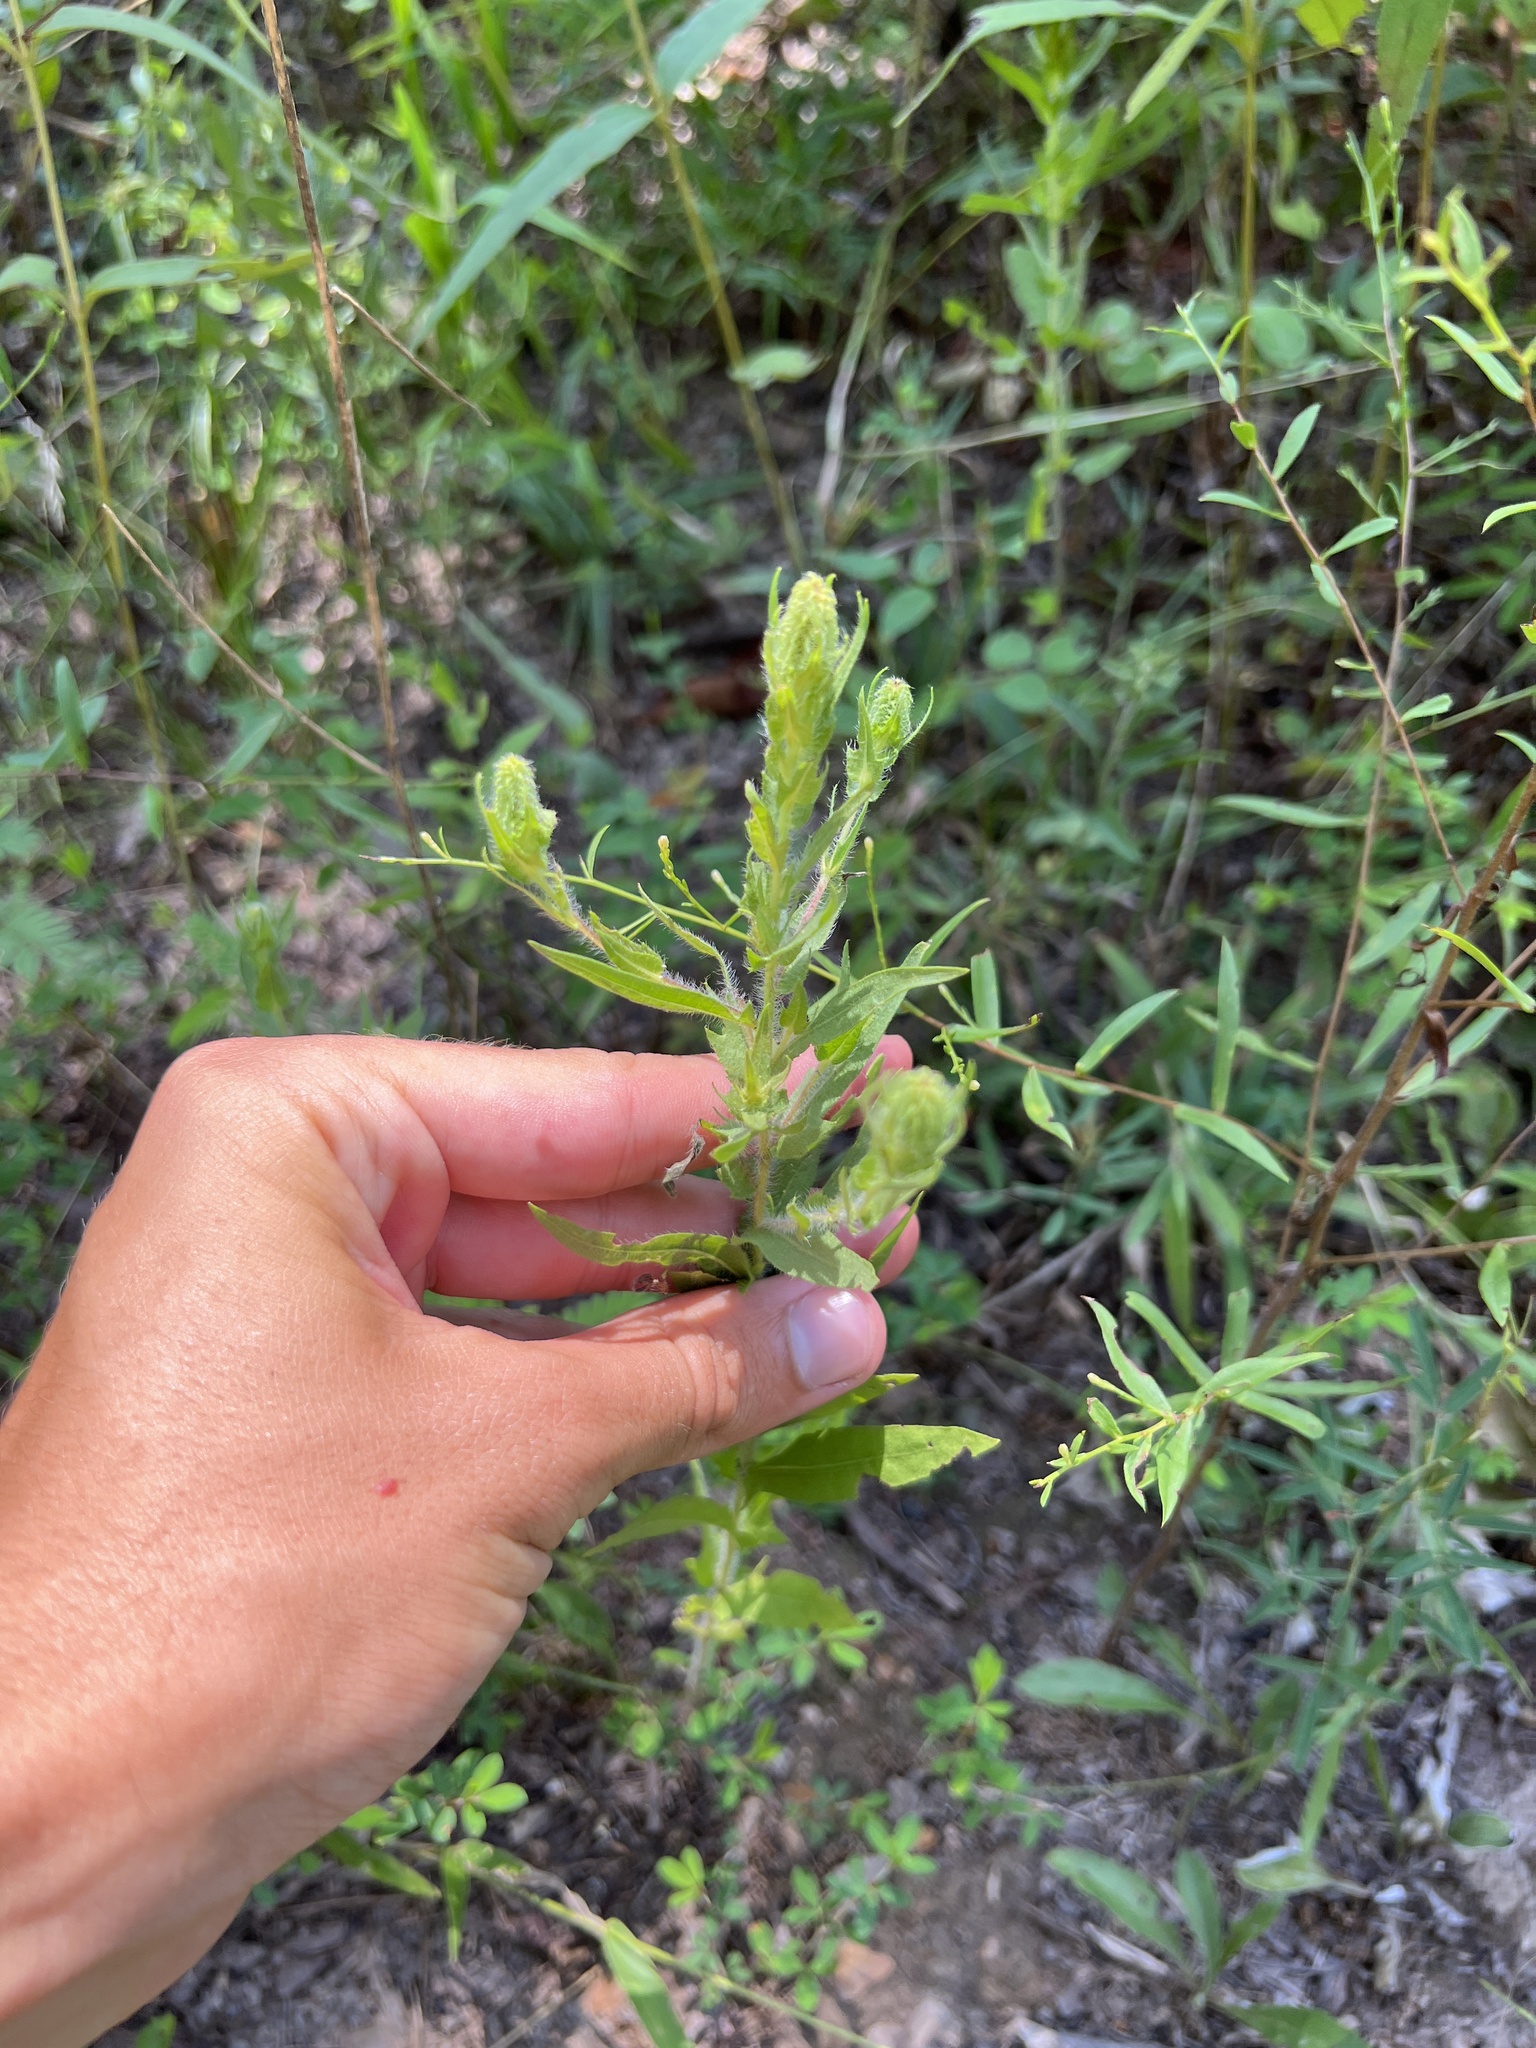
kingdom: Plantae
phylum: Tracheophyta
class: Magnoliopsida
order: Asterales
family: Asteraceae
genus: Ambrosia
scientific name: Ambrosia bidentata
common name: Southern ragweed
